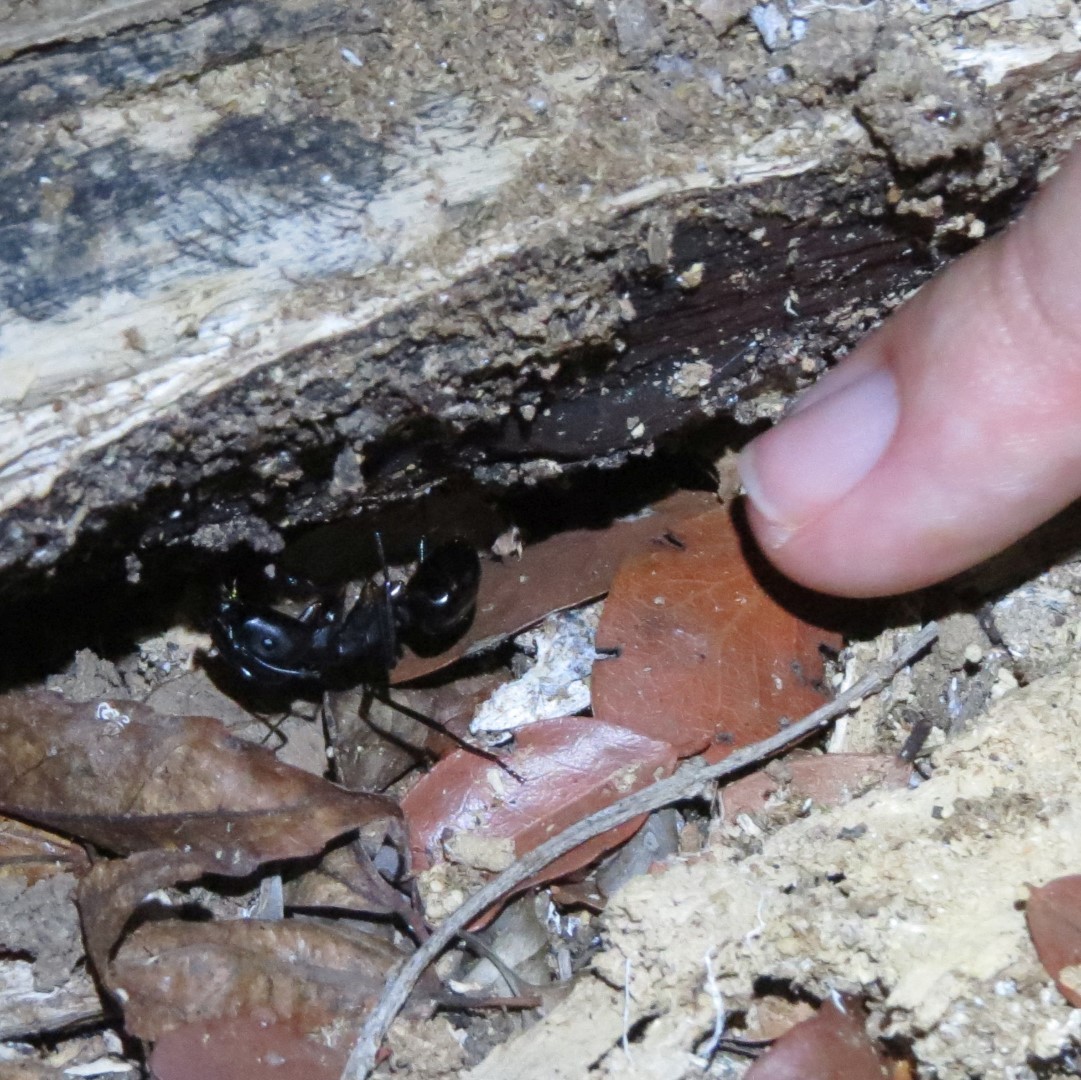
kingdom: Animalia
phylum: Arthropoda
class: Insecta
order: Hymenoptera
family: Formicidae
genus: Camponotus
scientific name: Camponotus gouldi
